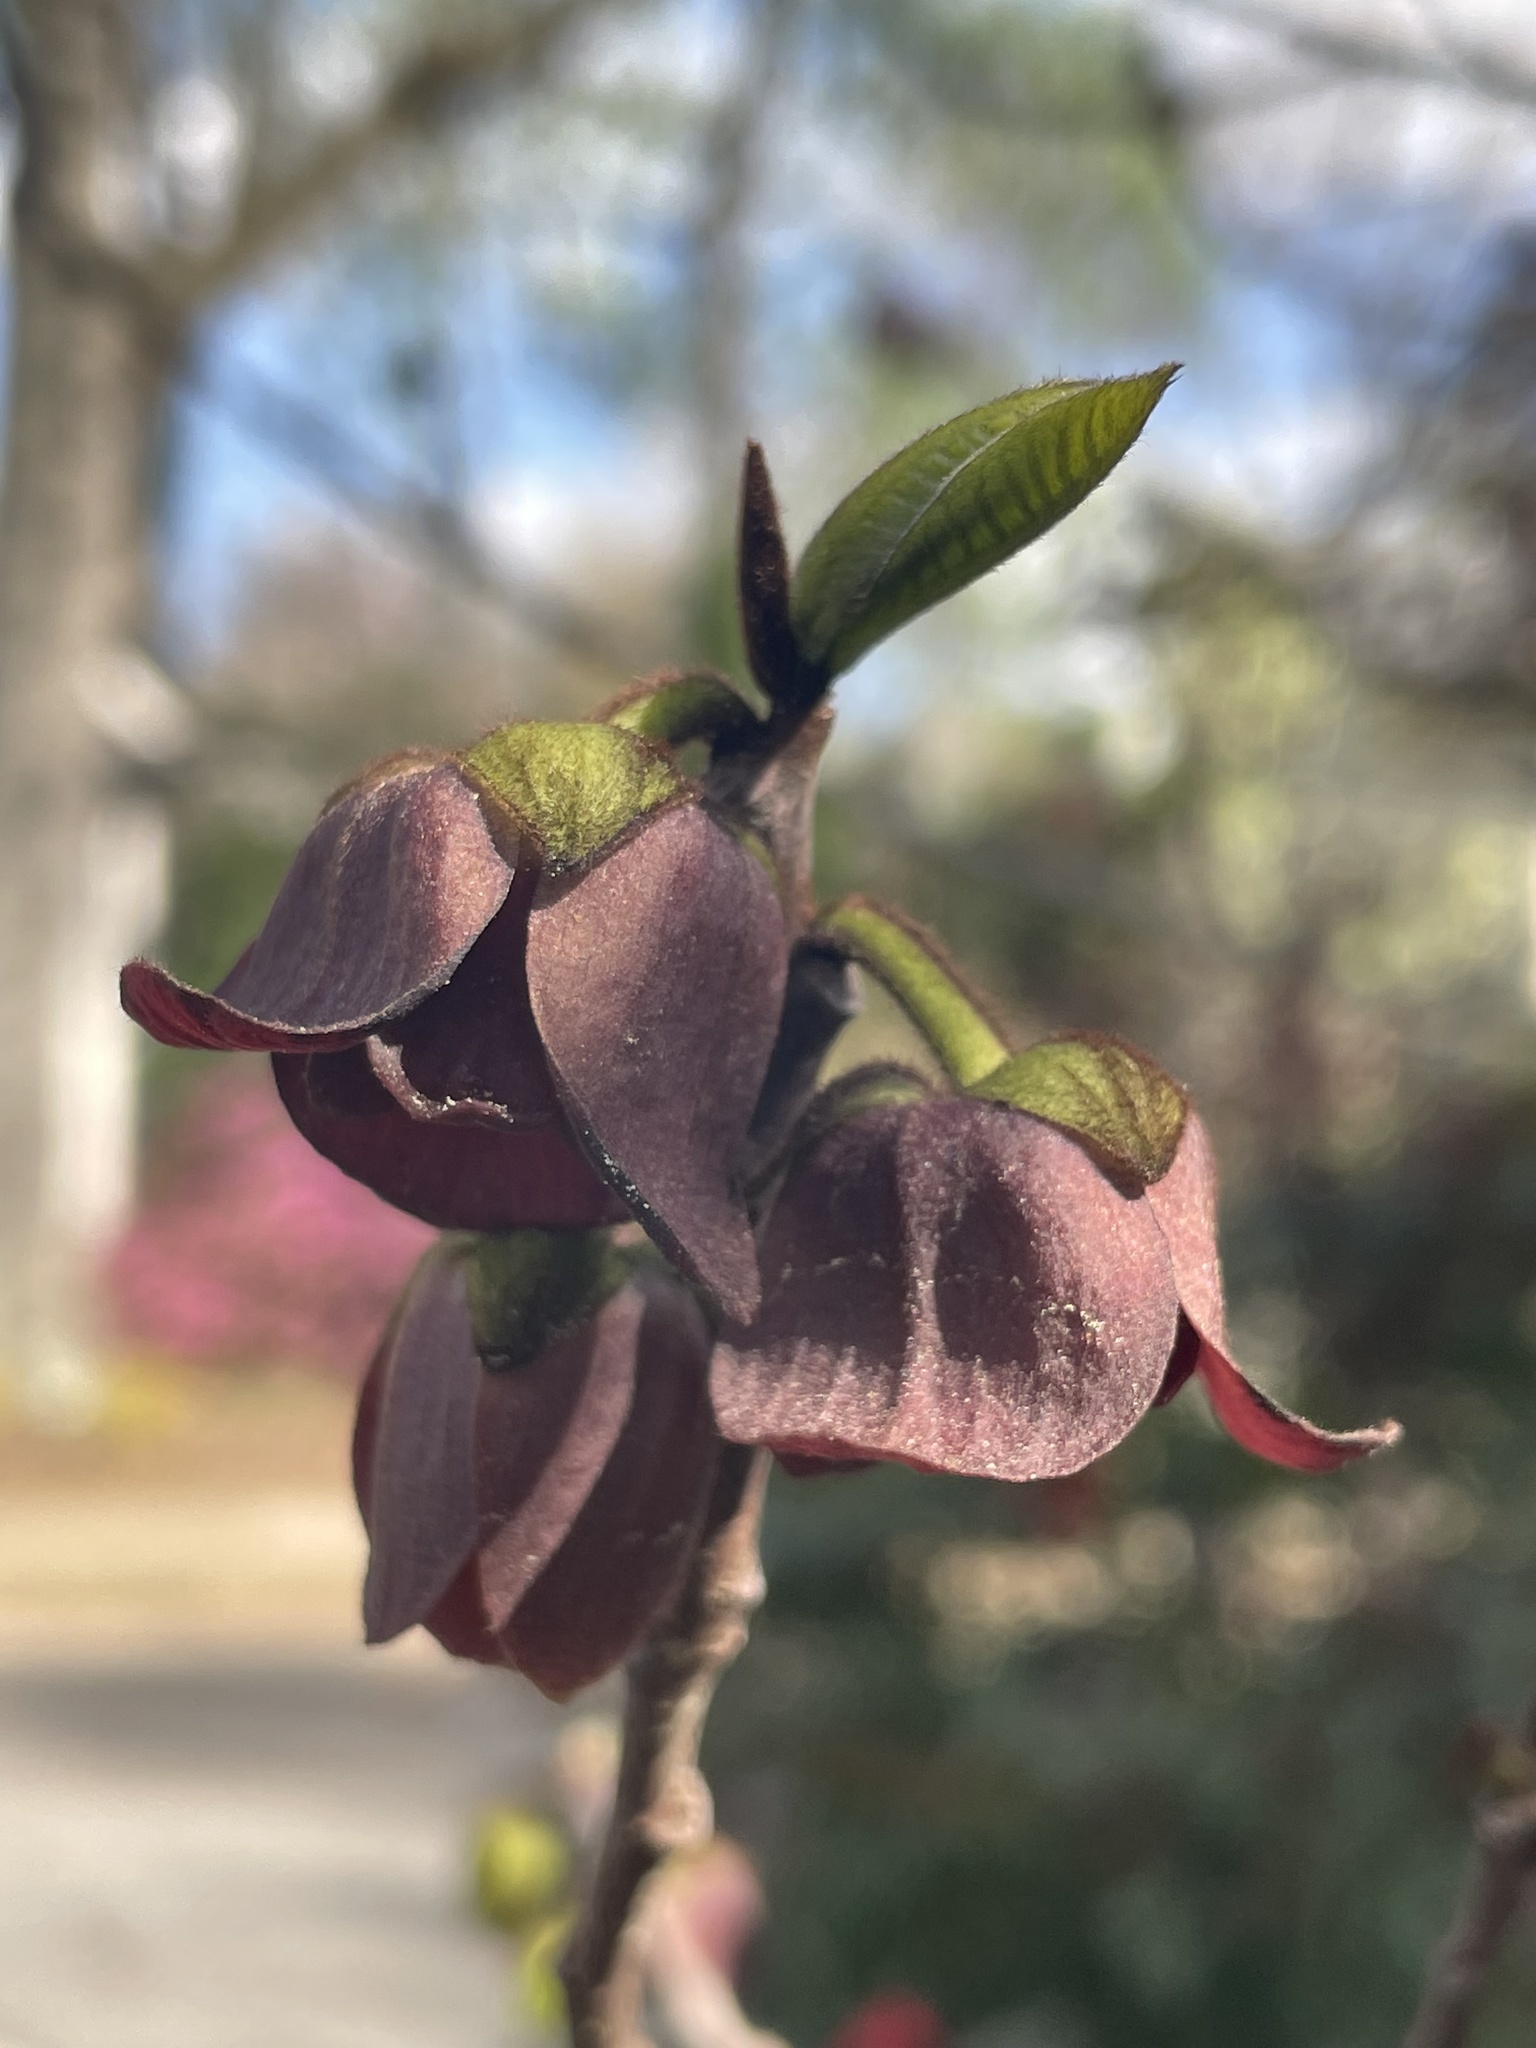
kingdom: Plantae
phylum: Tracheophyta
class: Magnoliopsida
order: Magnoliales
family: Annonaceae
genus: Asimina
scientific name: Asimina triloba
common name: Dog-banana
